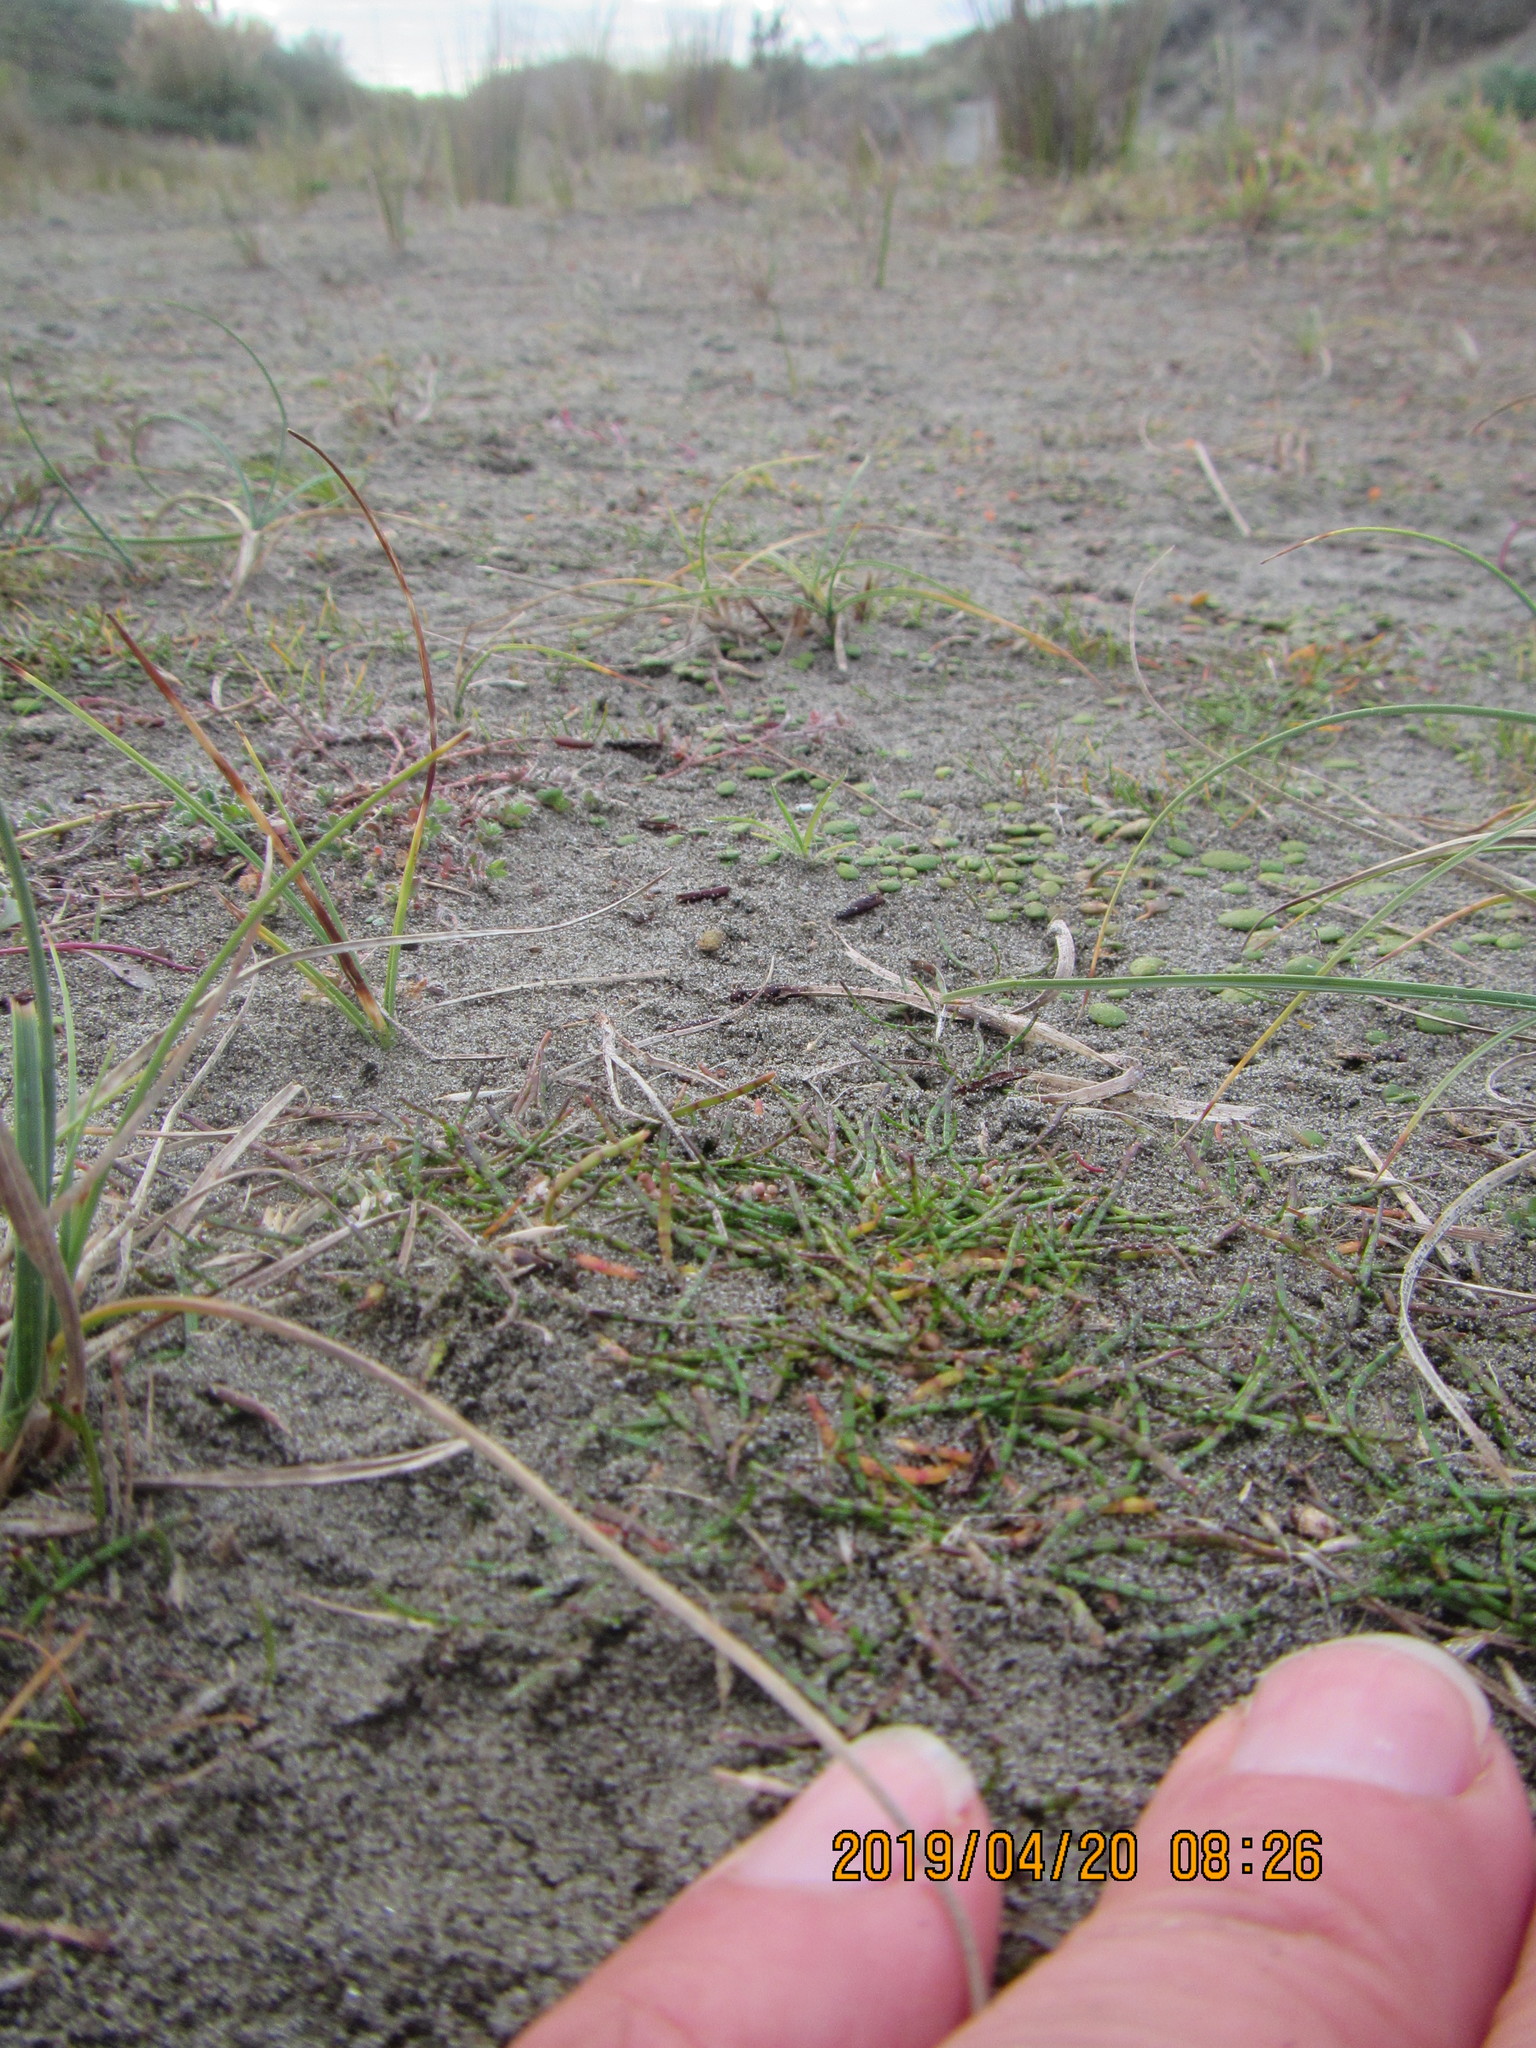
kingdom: Plantae
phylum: Tracheophyta
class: Magnoliopsida
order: Apiales
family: Apiaceae
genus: Lilaeopsis
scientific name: Lilaeopsis novae-zelandiae
